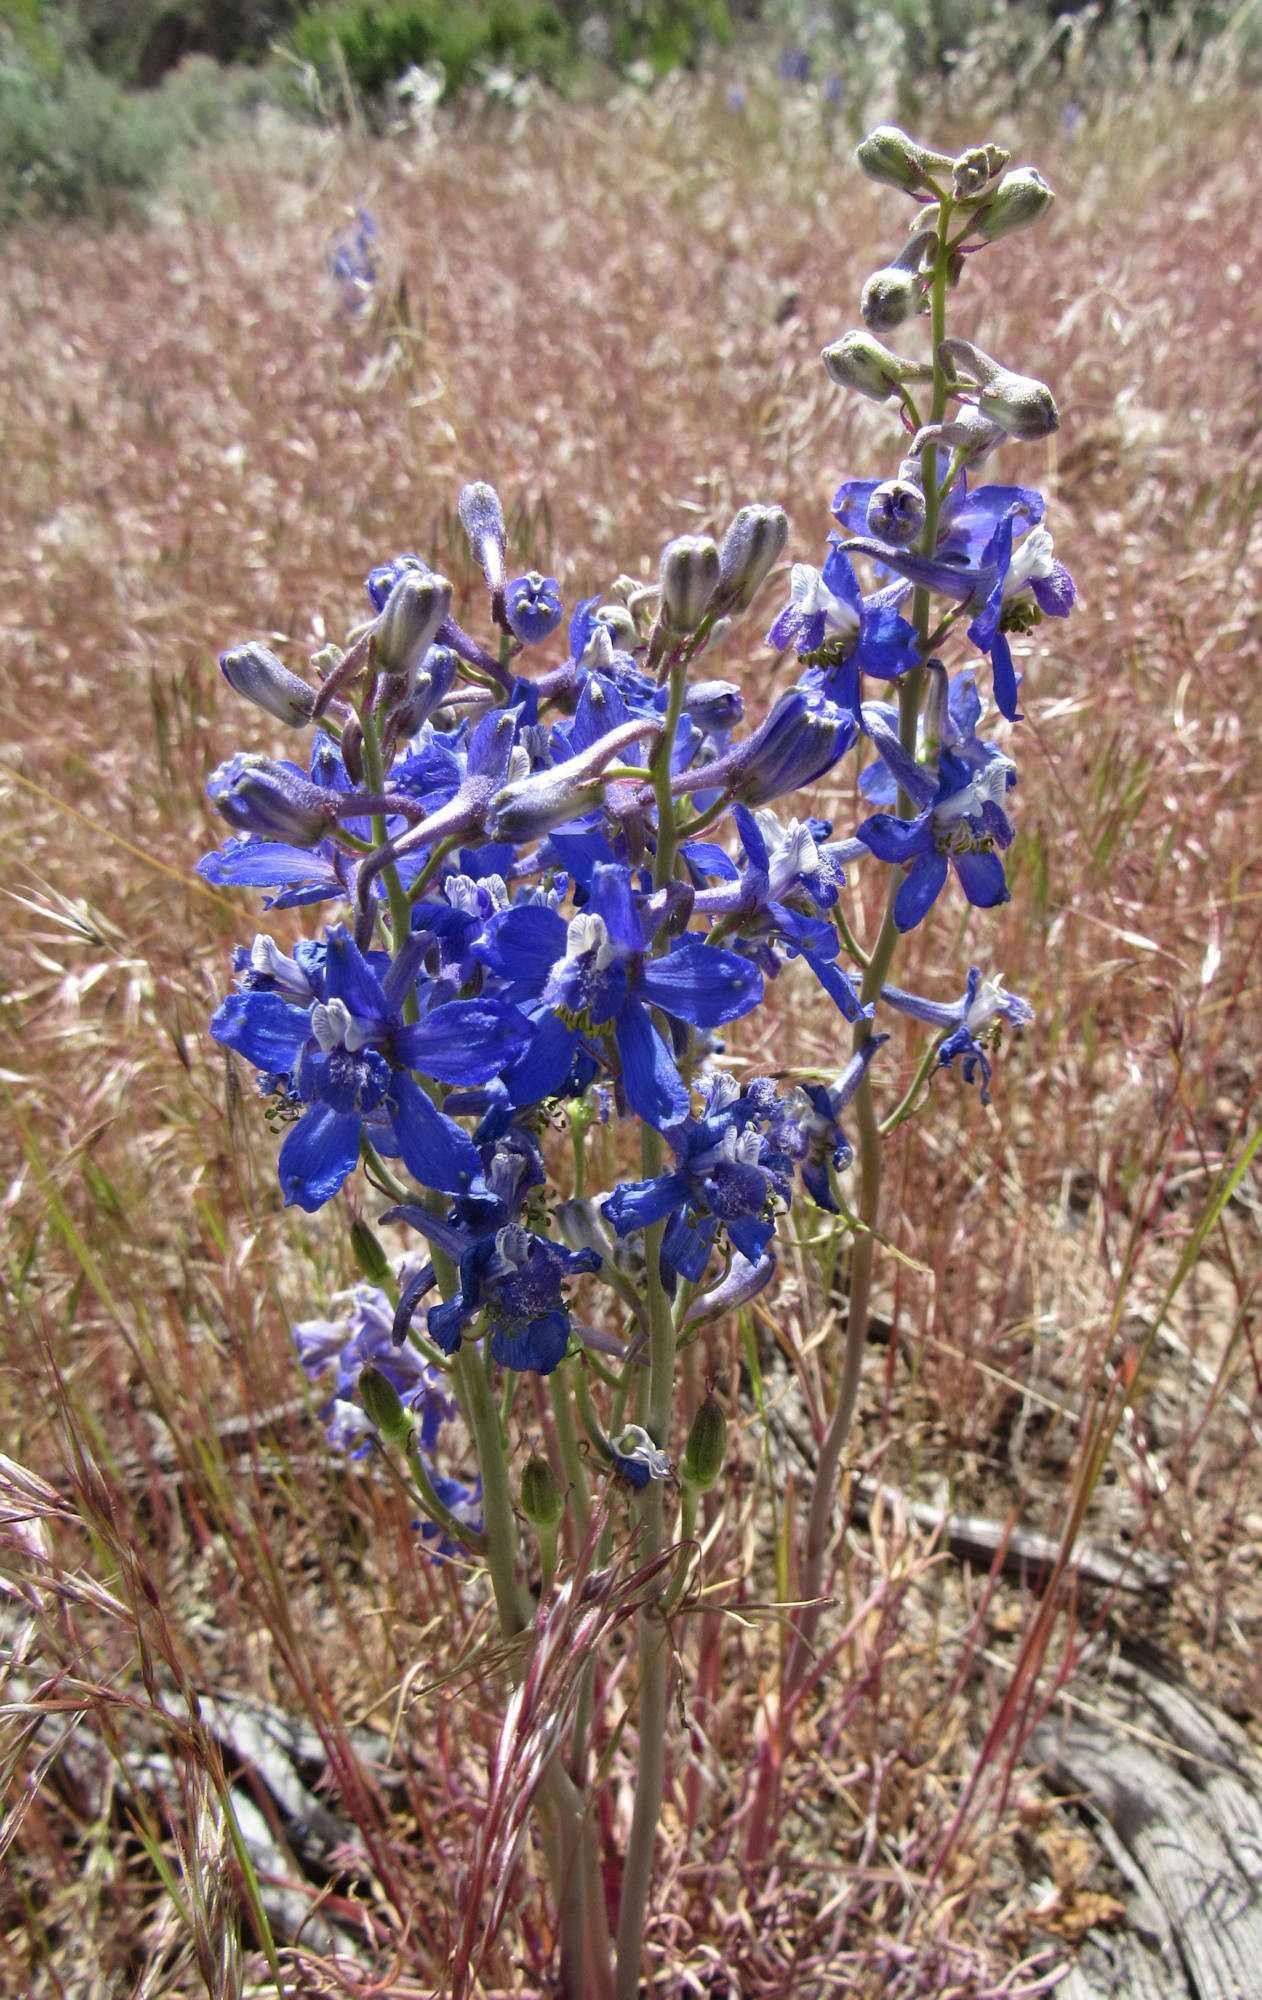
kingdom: Plantae
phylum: Tracheophyta
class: Magnoliopsida
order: Ranunculales
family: Ranunculaceae
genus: Delphinium
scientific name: Delphinium nuttallianum
